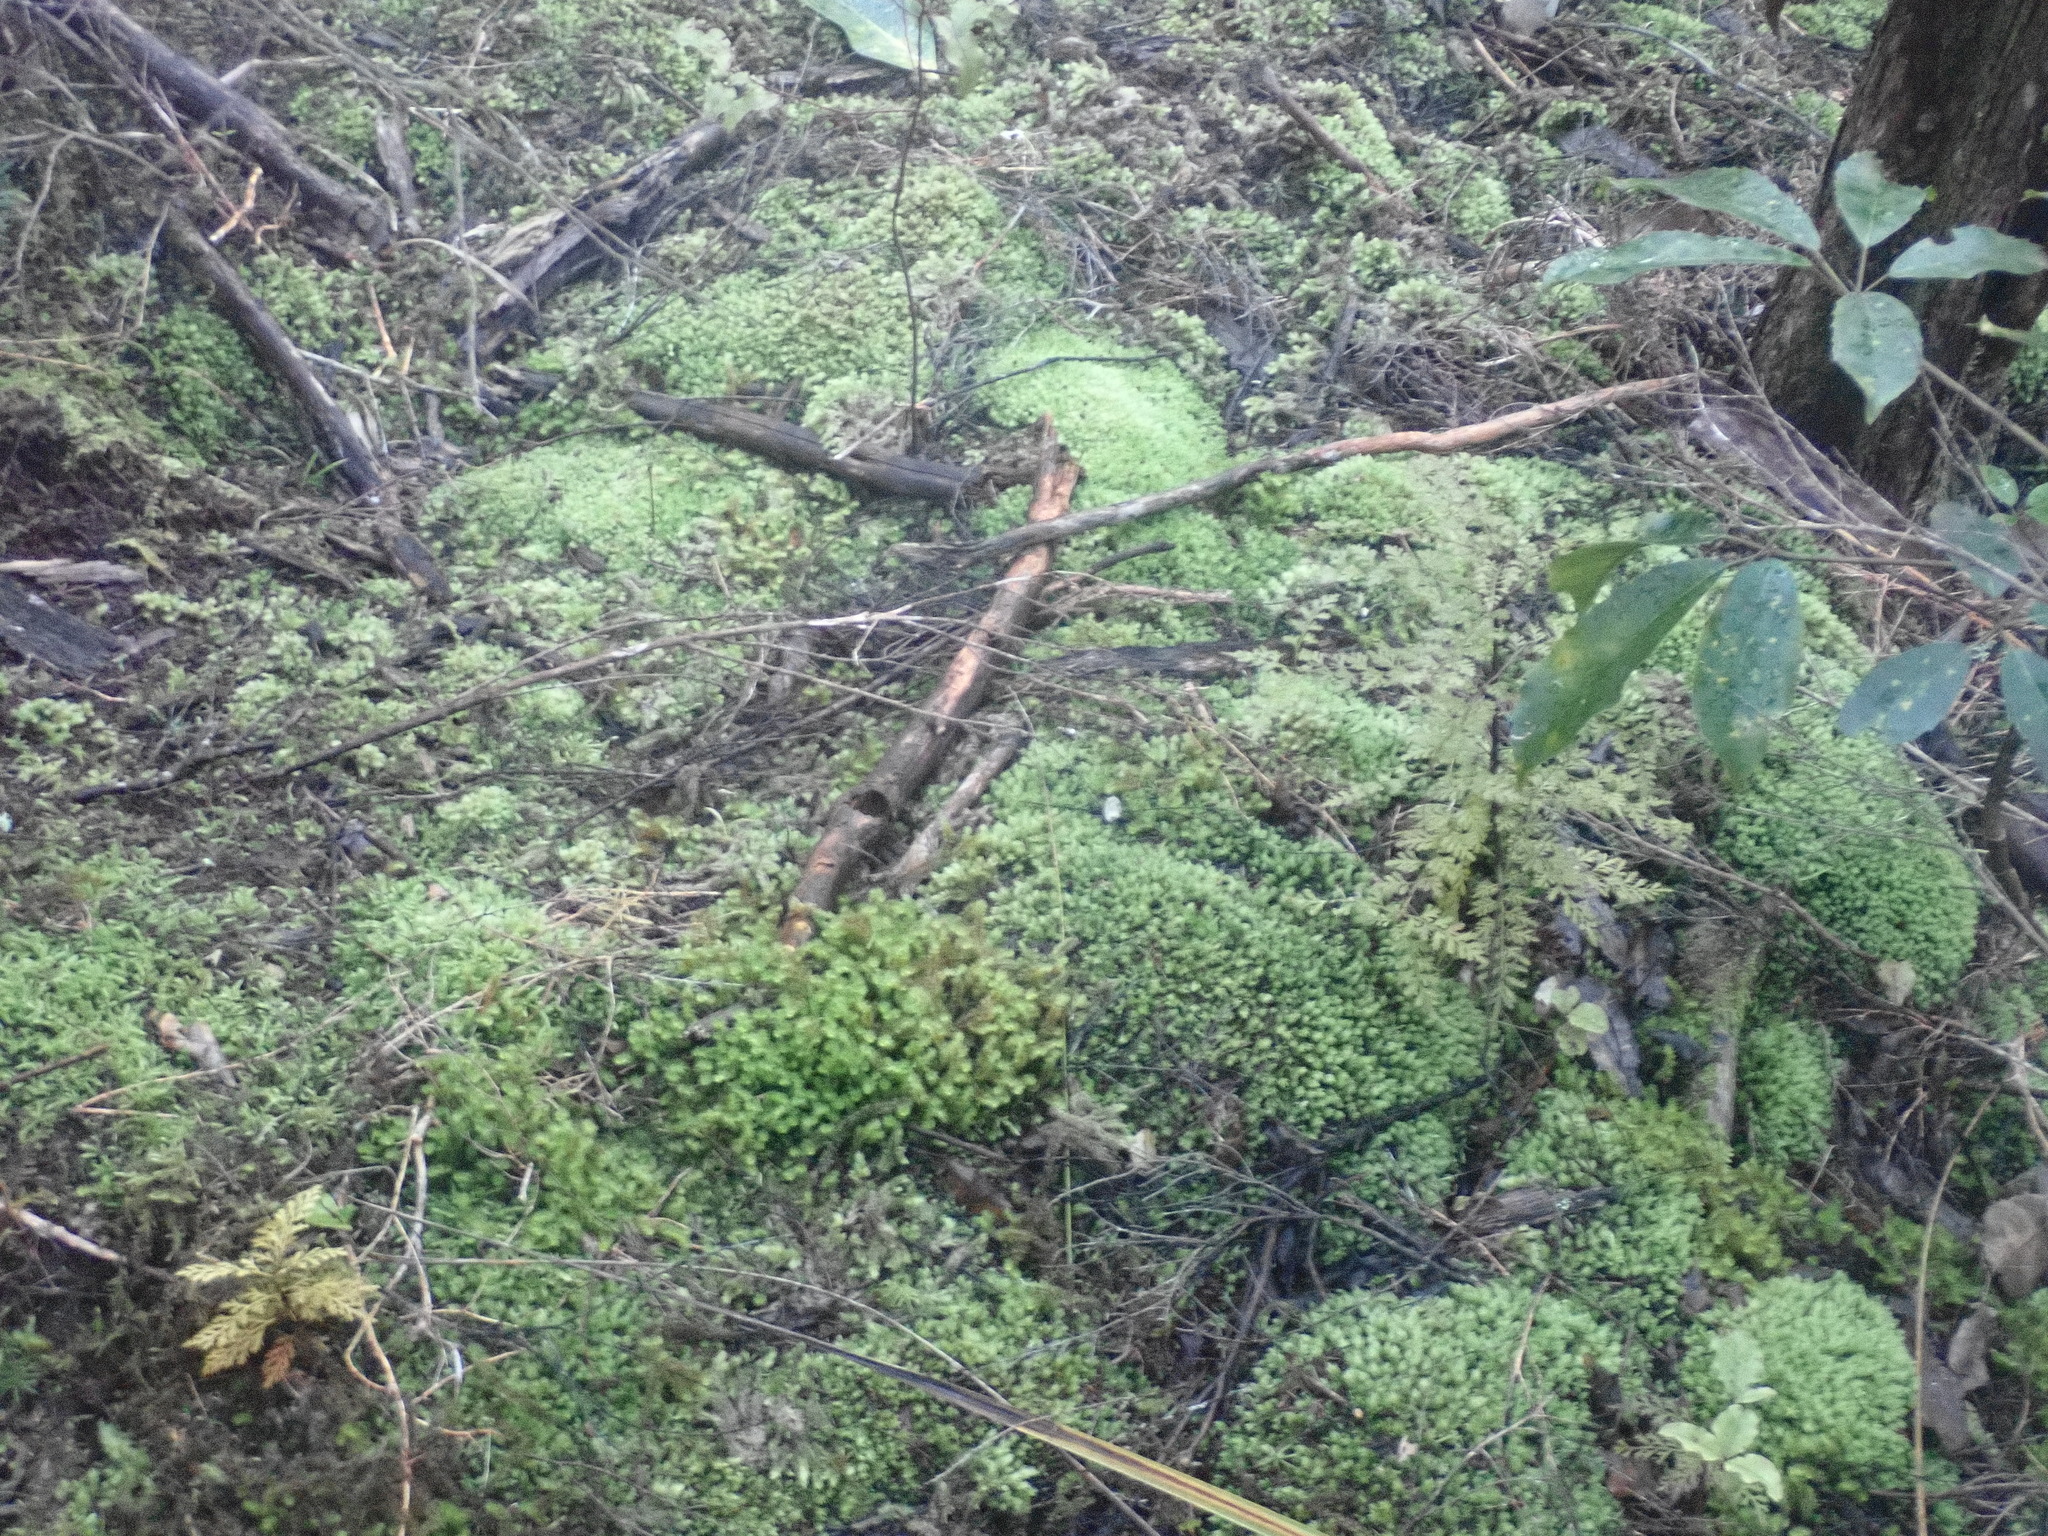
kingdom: Plantae
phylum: Bryophyta
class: Bryopsida
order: Dicranales
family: Leucobryaceae
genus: Leucobryum
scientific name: Leucobryum javense
